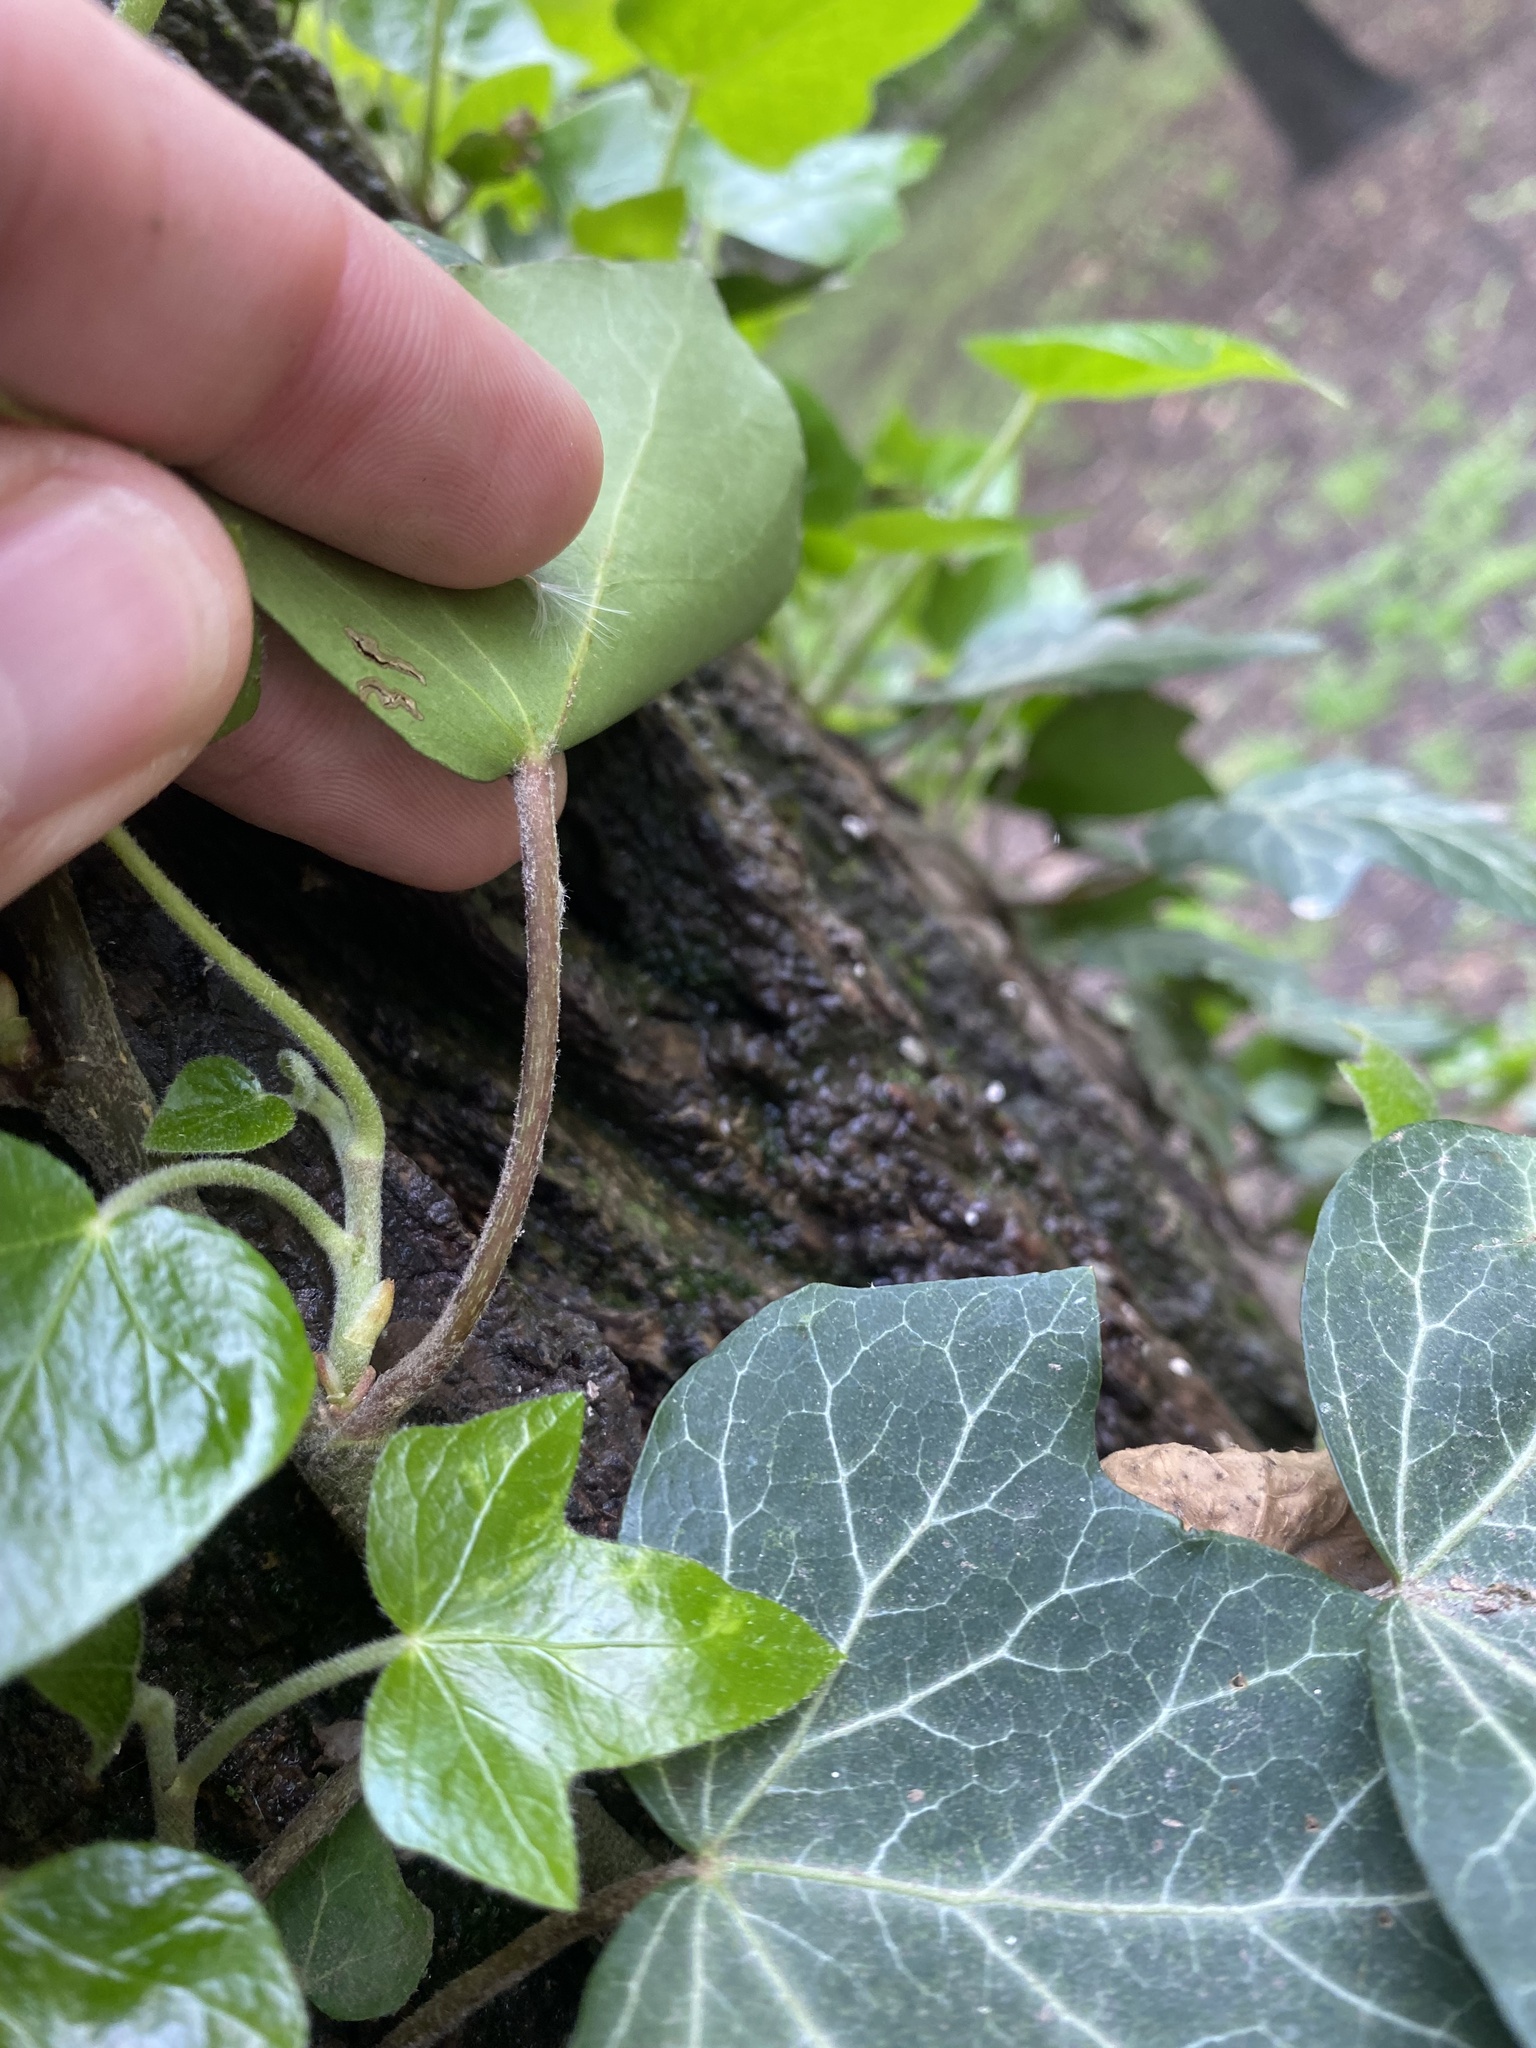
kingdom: Plantae
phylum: Tracheophyta
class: Magnoliopsida
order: Apiales
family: Araliaceae
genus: Hedera
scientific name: Hedera helix
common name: Ivy
